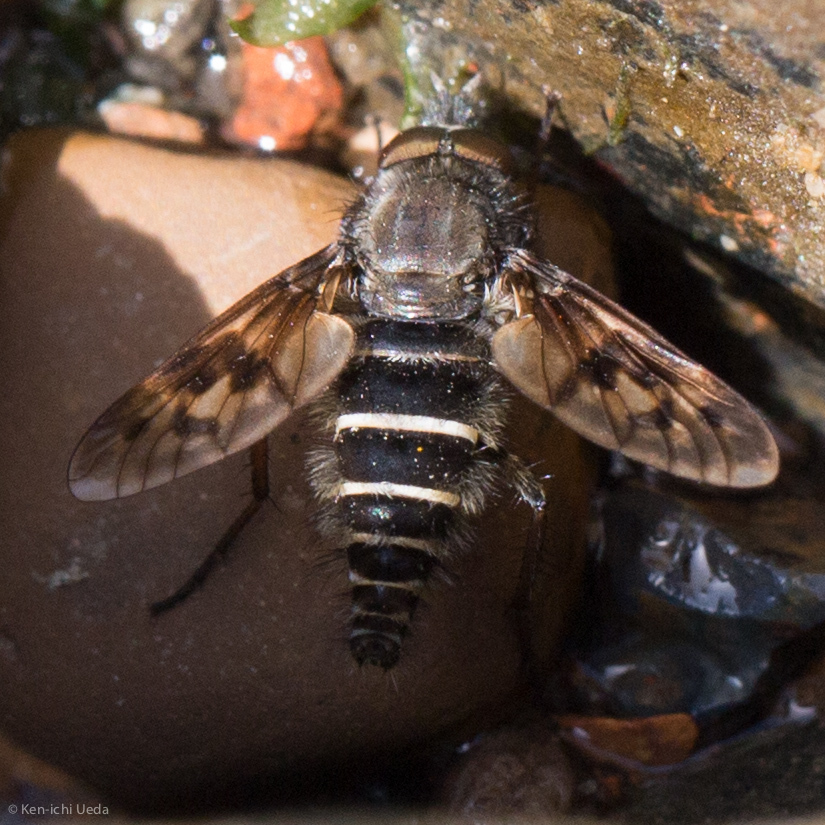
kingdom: Animalia
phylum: Arthropoda
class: Insecta
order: Diptera
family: Therevidae
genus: Thereva
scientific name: Thereva comata
